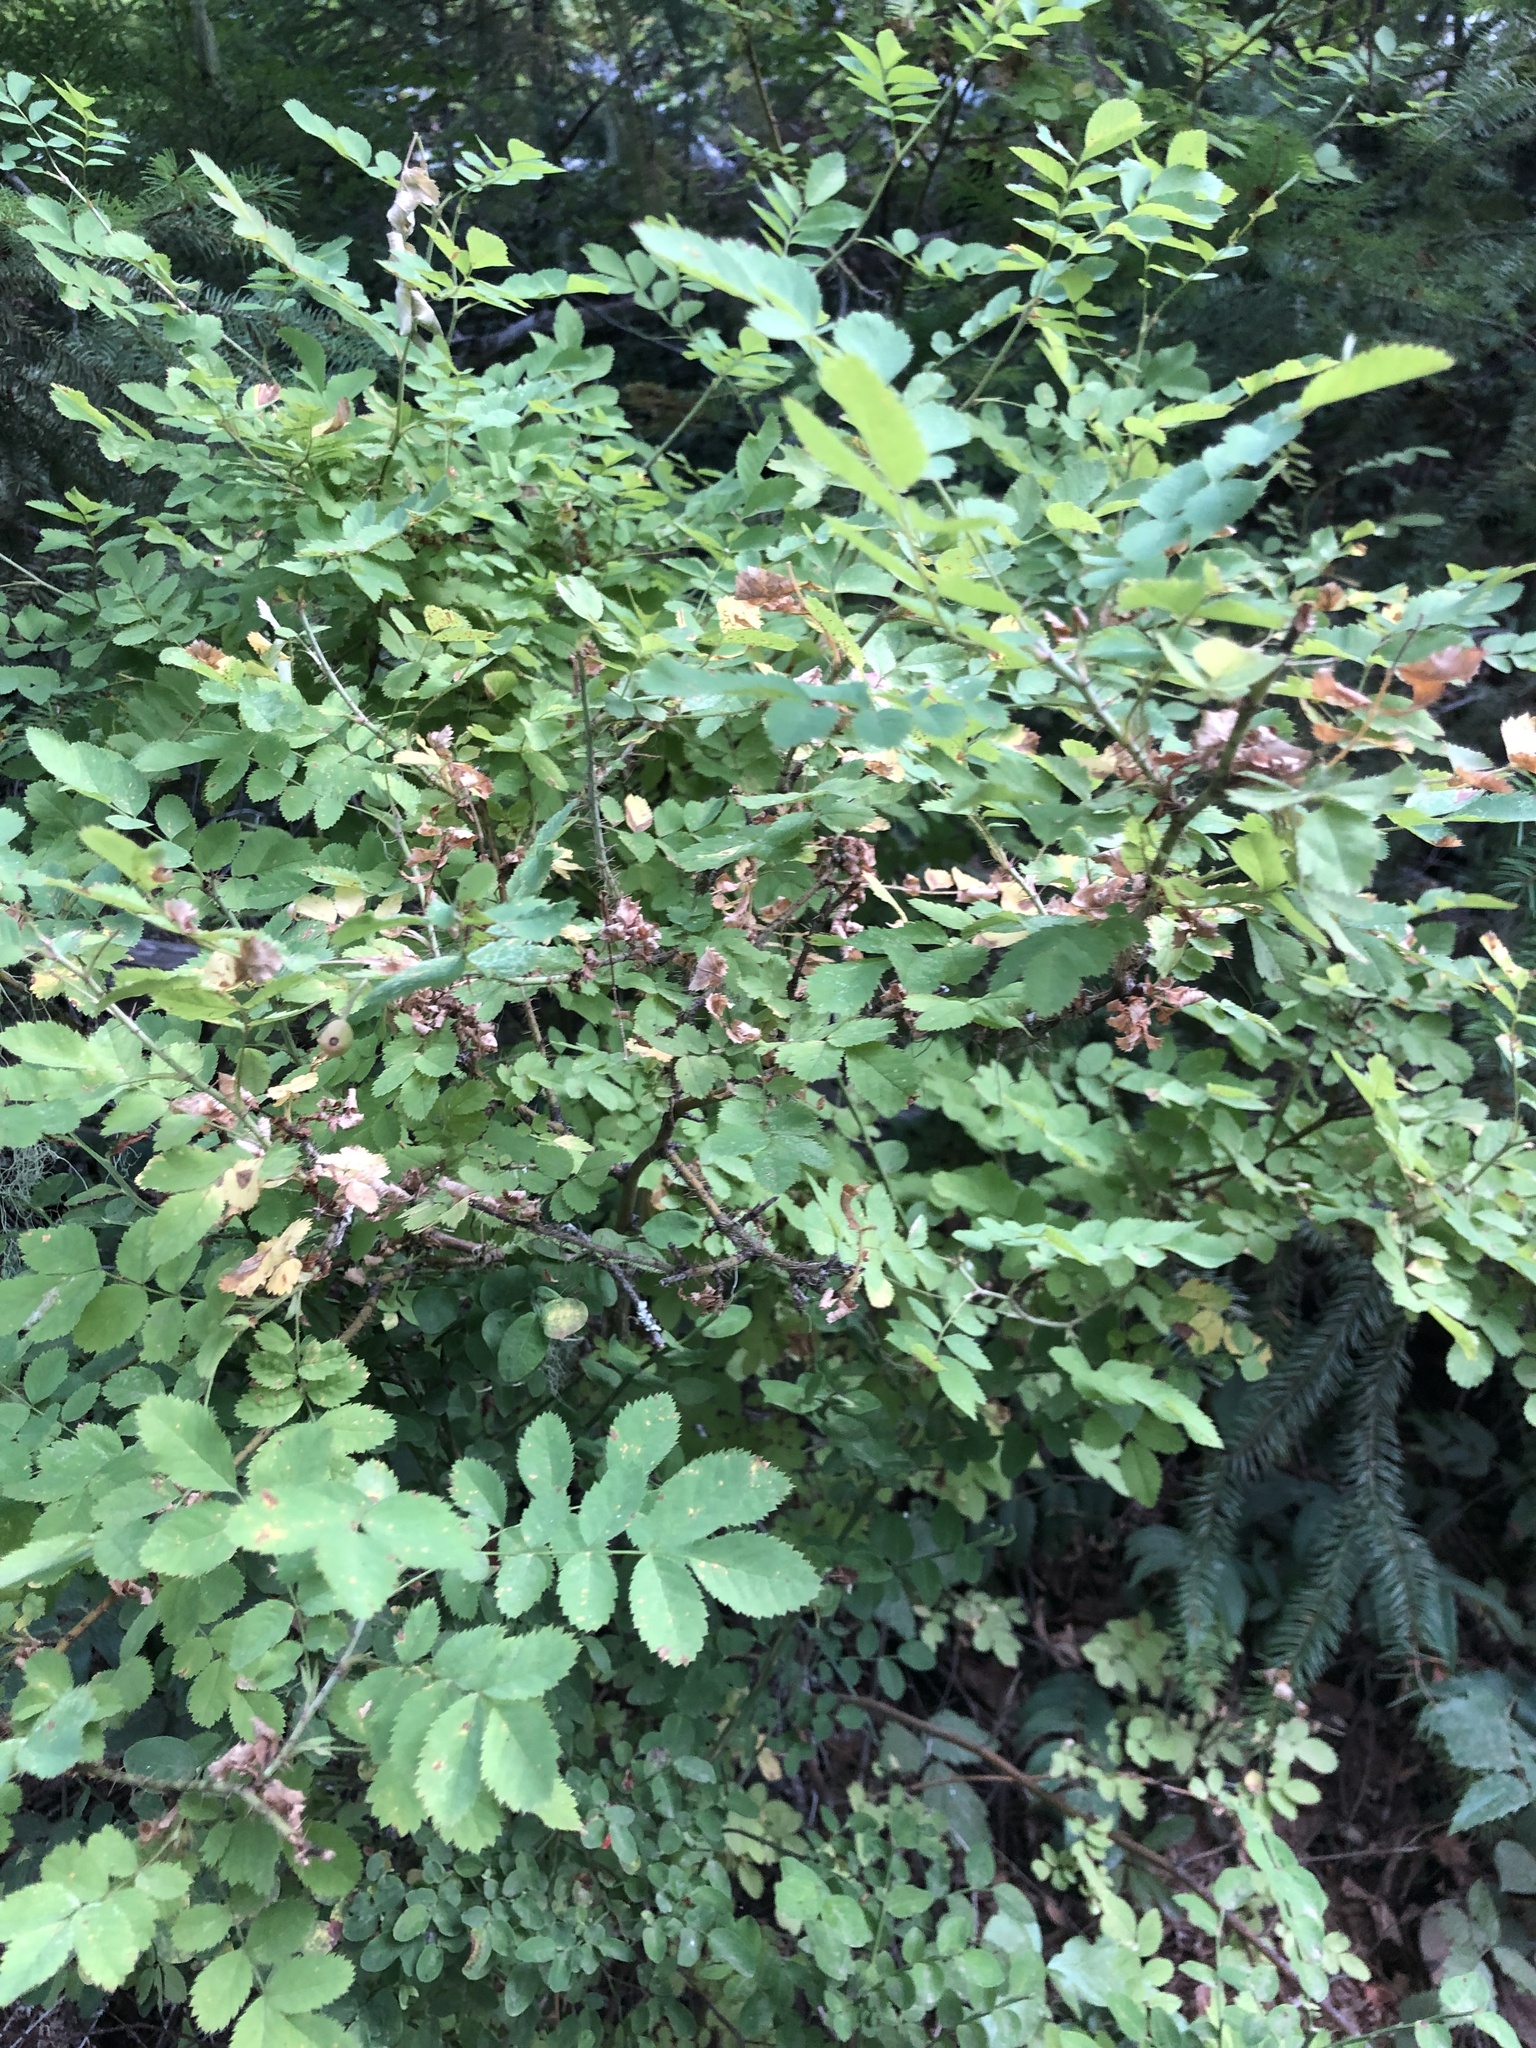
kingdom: Plantae
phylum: Tracheophyta
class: Magnoliopsida
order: Rosales
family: Rosaceae
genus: Rosa
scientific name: Rosa gymnocarpa
